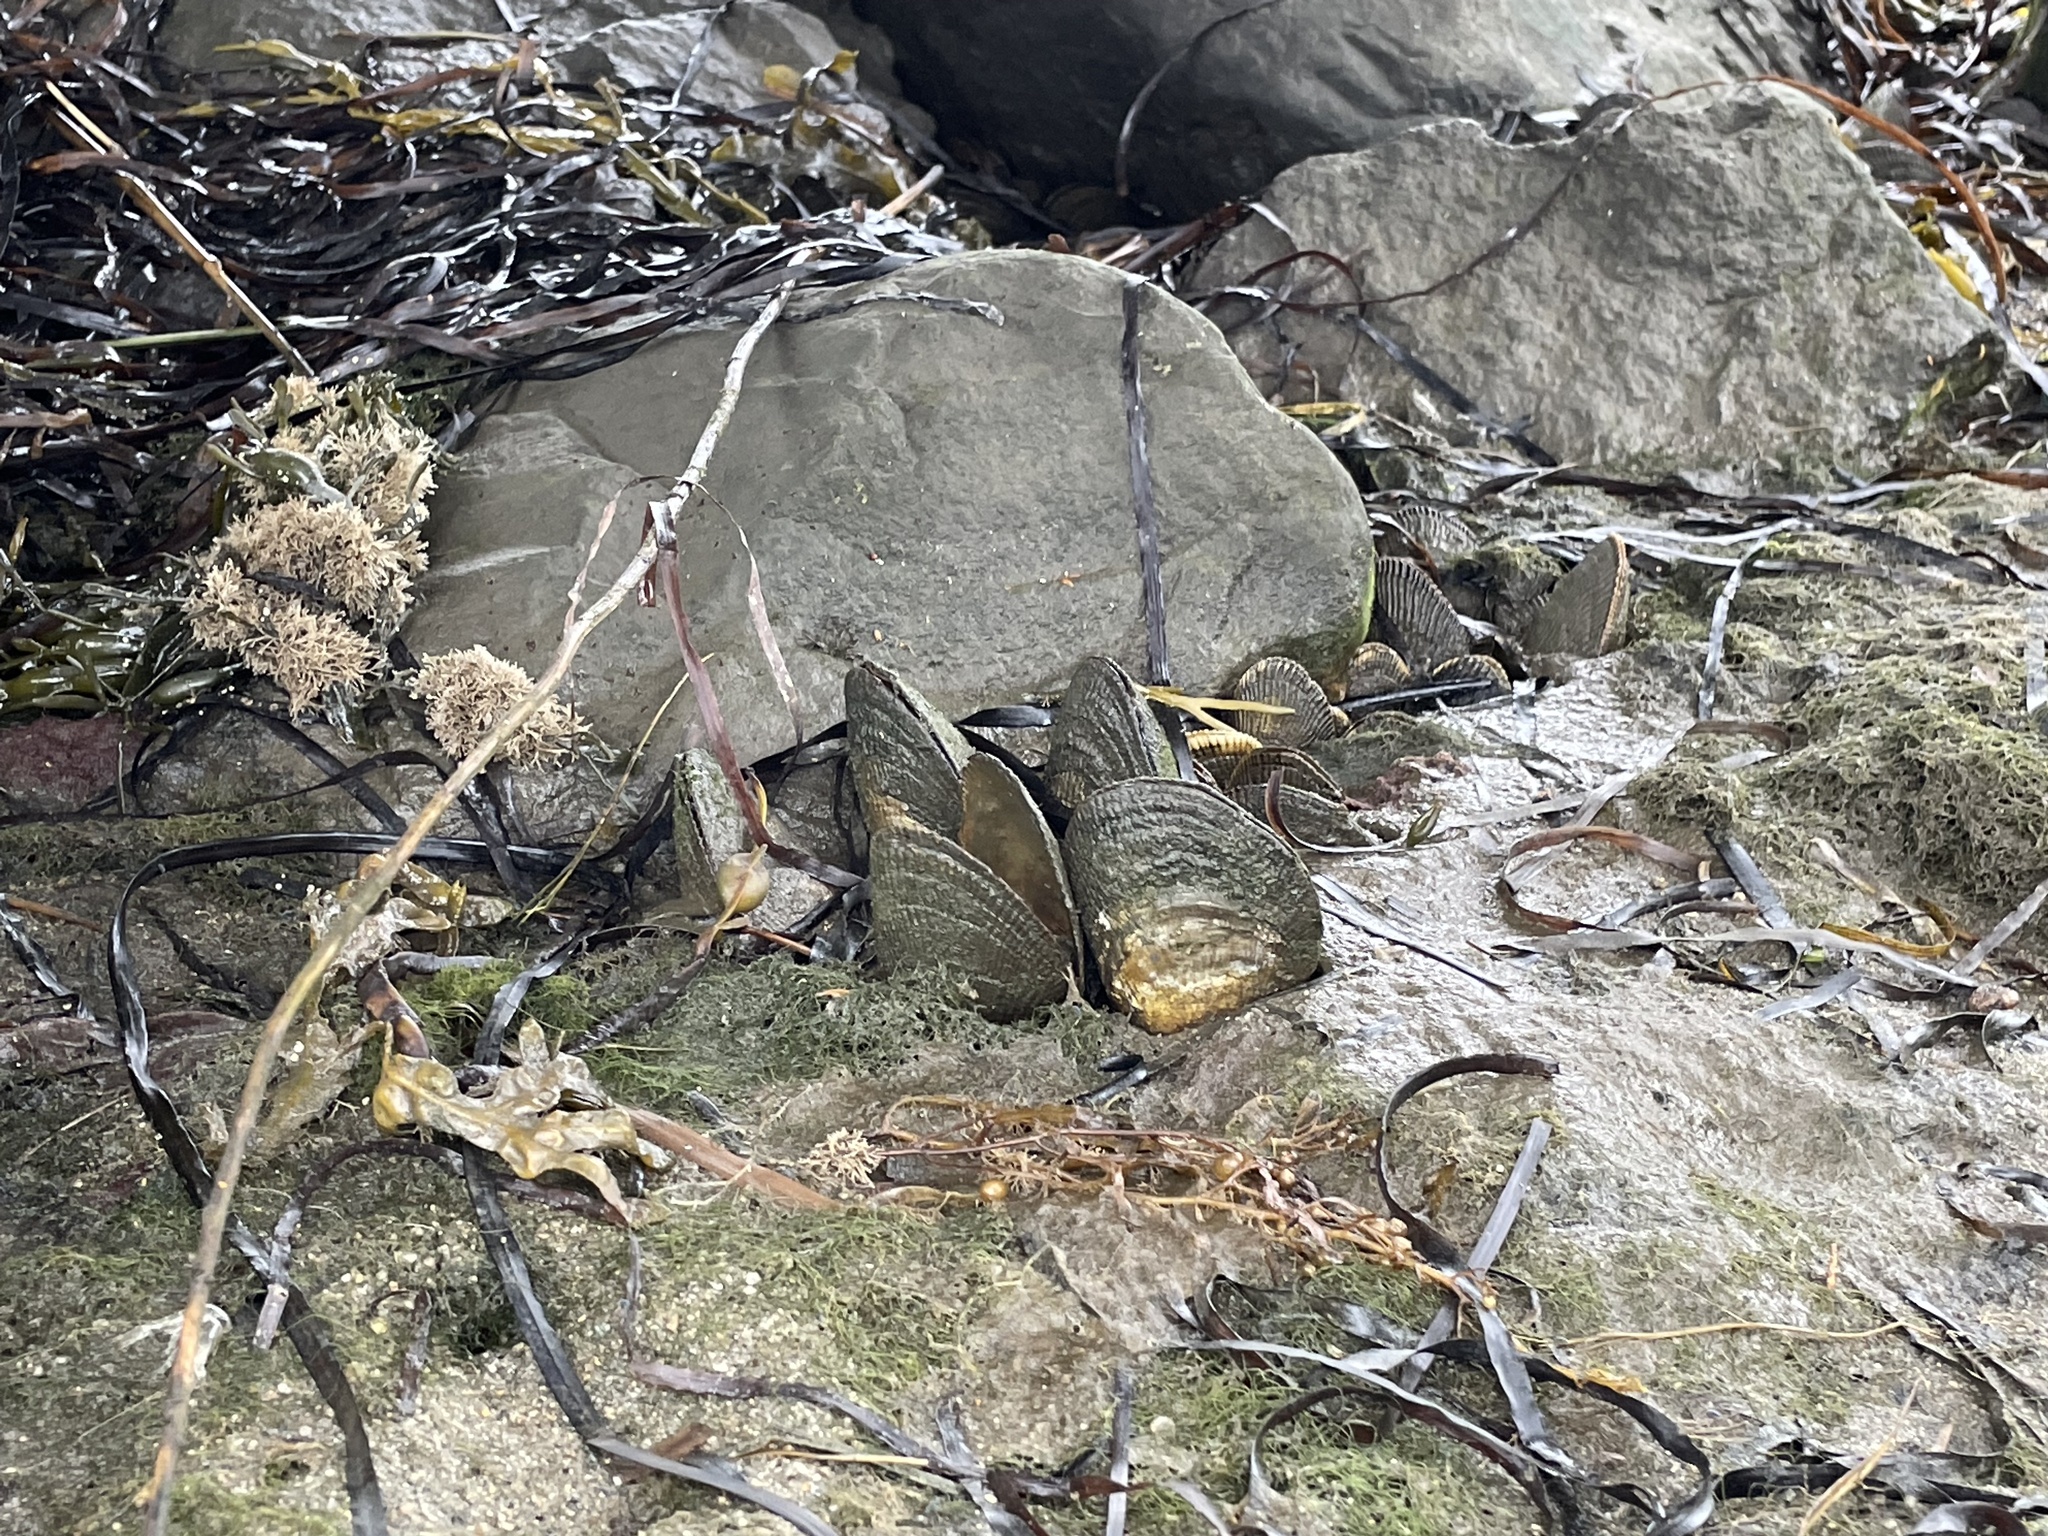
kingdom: Animalia
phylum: Mollusca
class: Bivalvia
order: Mytilida
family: Mytilidae
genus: Geukensia
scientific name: Geukensia demissa
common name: Ribbed mussel
